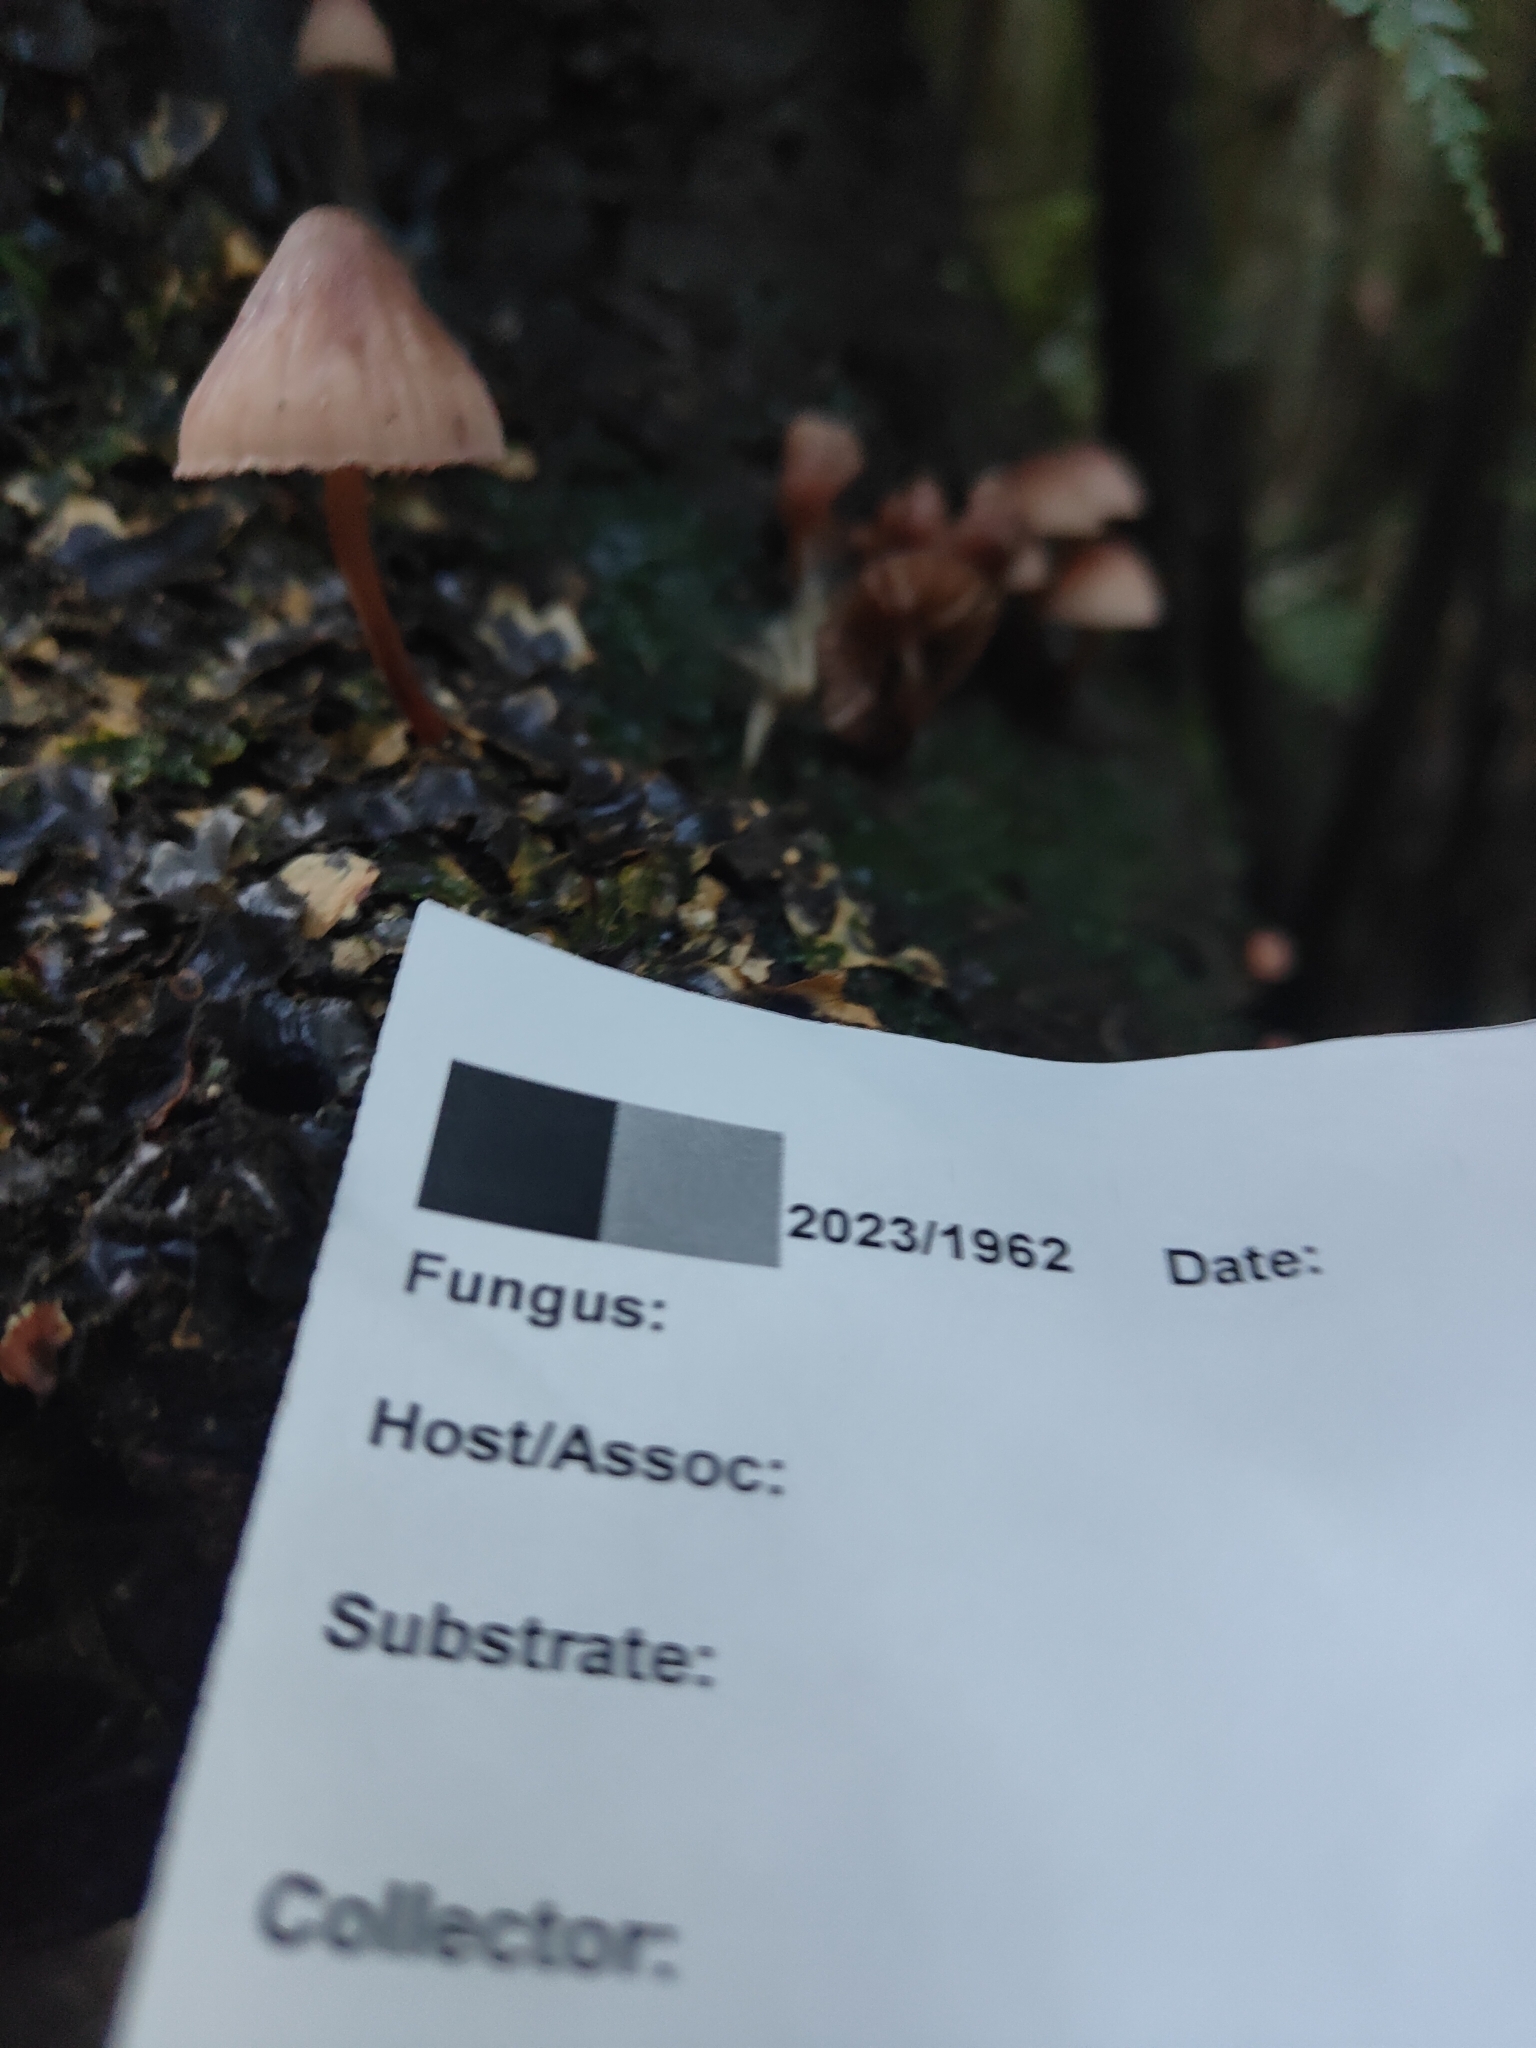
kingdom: Fungi
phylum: Basidiomycota
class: Agaricomycetes
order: Agaricales
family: Mycenaceae
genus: Mycena
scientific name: Mycena mariae
